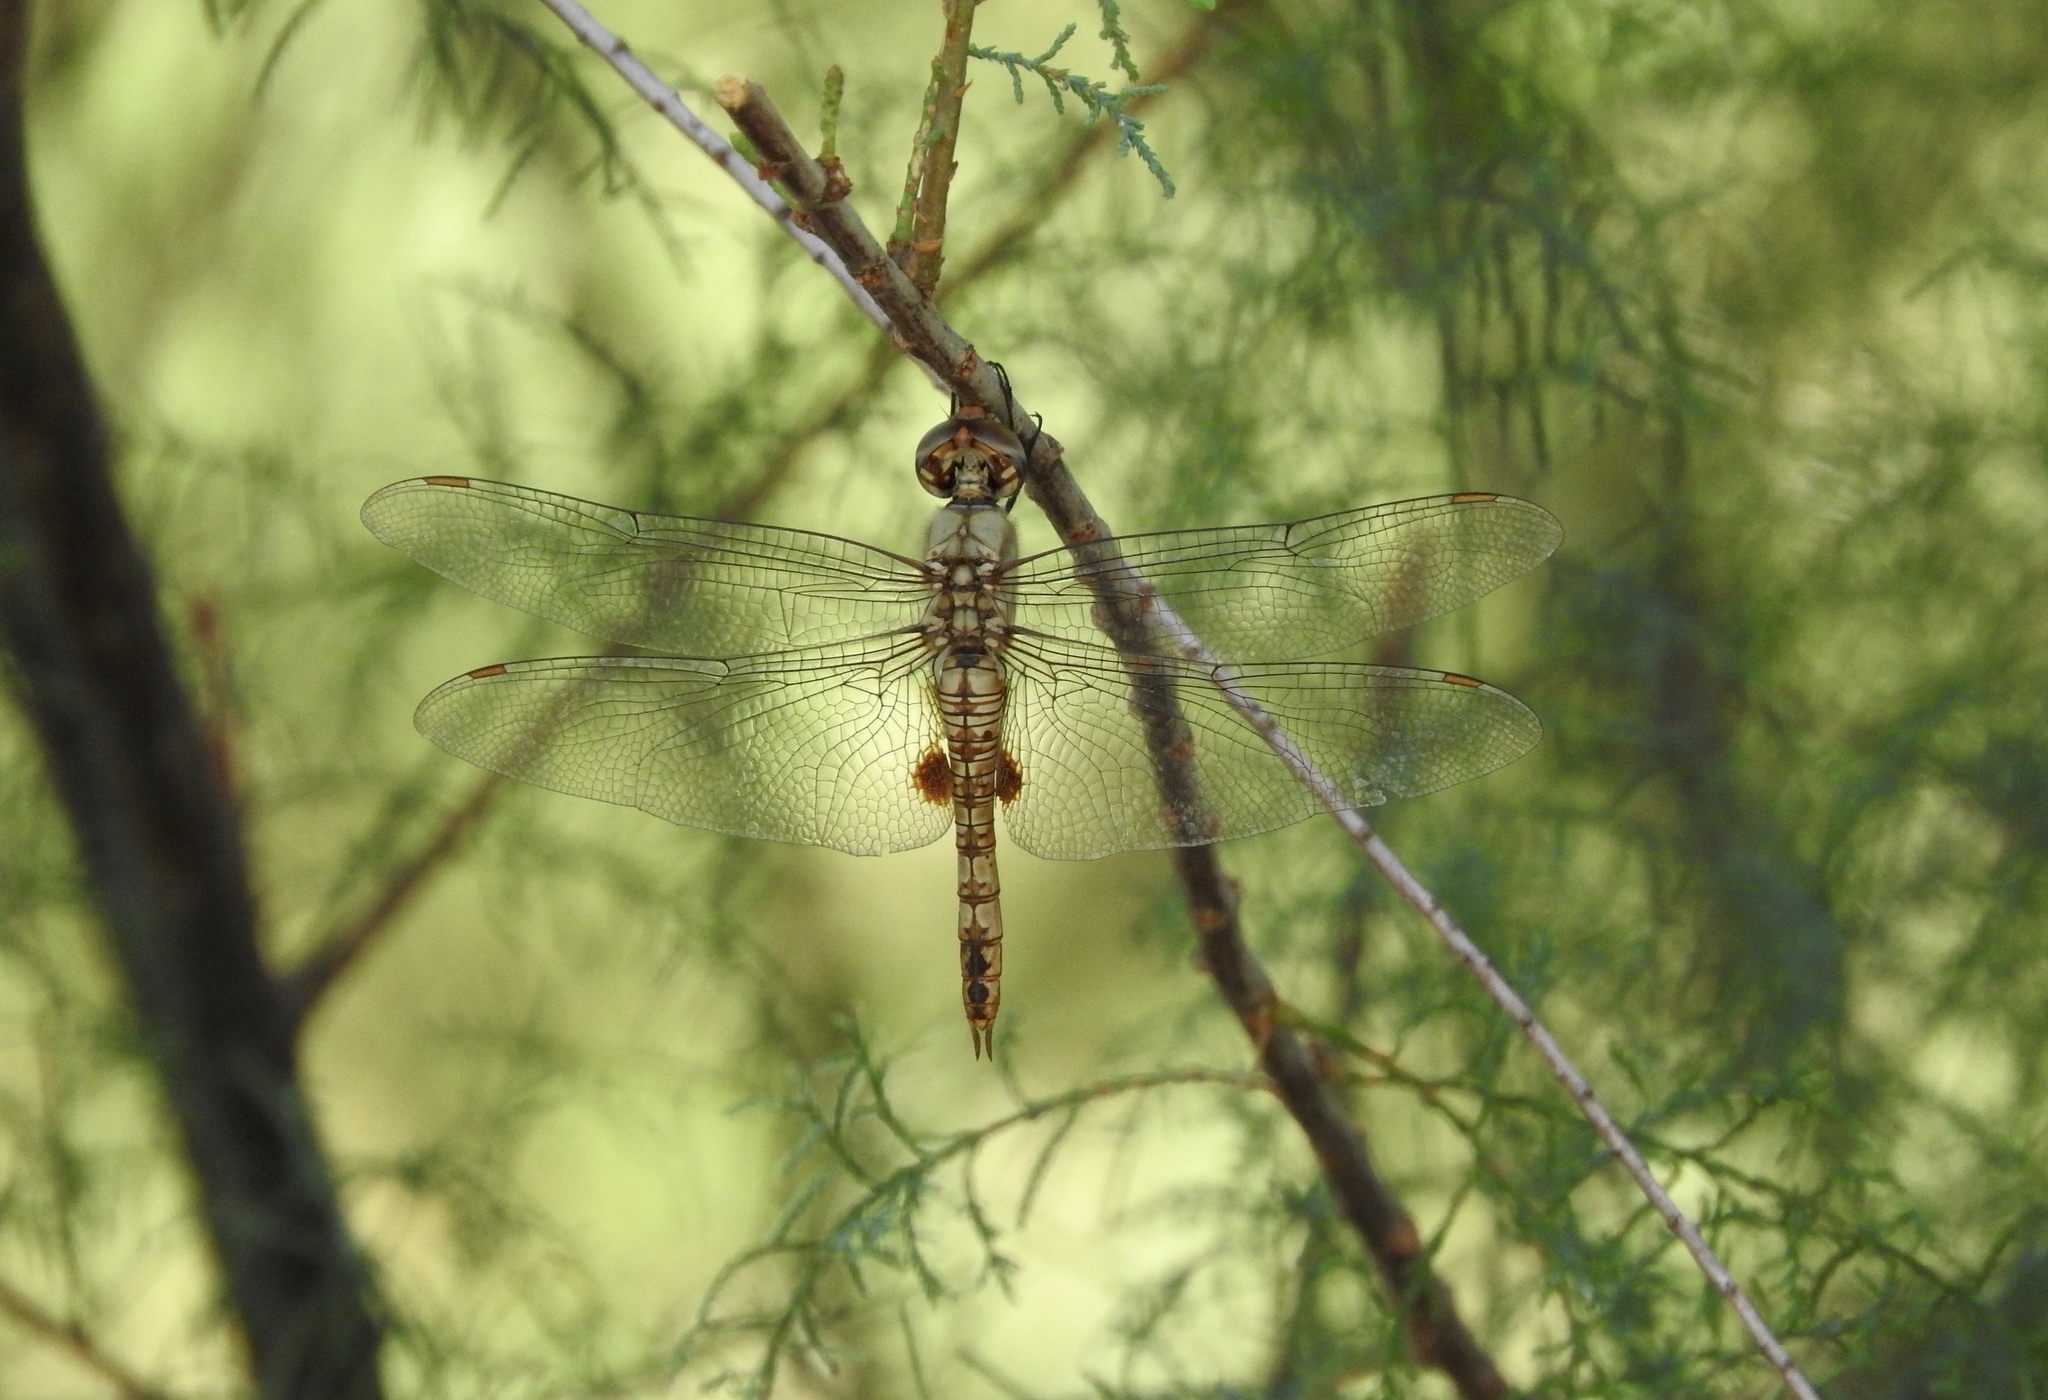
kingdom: Animalia
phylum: Arthropoda
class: Insecta
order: Odonata
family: Libellulidae
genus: Pantala
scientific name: Pantala hymenaea
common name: Spot-winged glider
